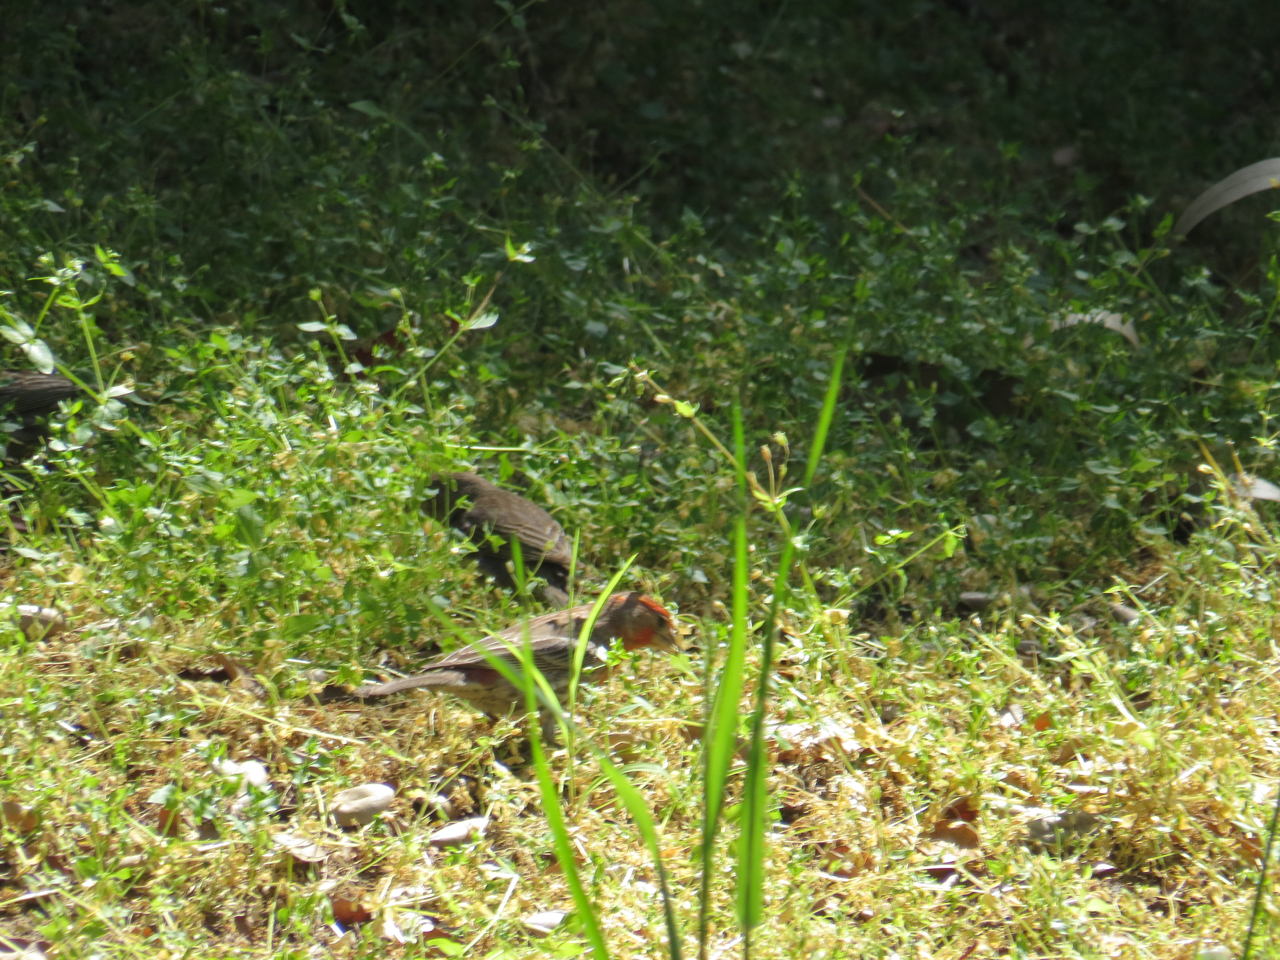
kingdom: Animalia
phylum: Chordata
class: Aves
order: Passeriformes
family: Fringillidae
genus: Haemorhous
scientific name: Haemorhous mexicanus
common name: House finch
